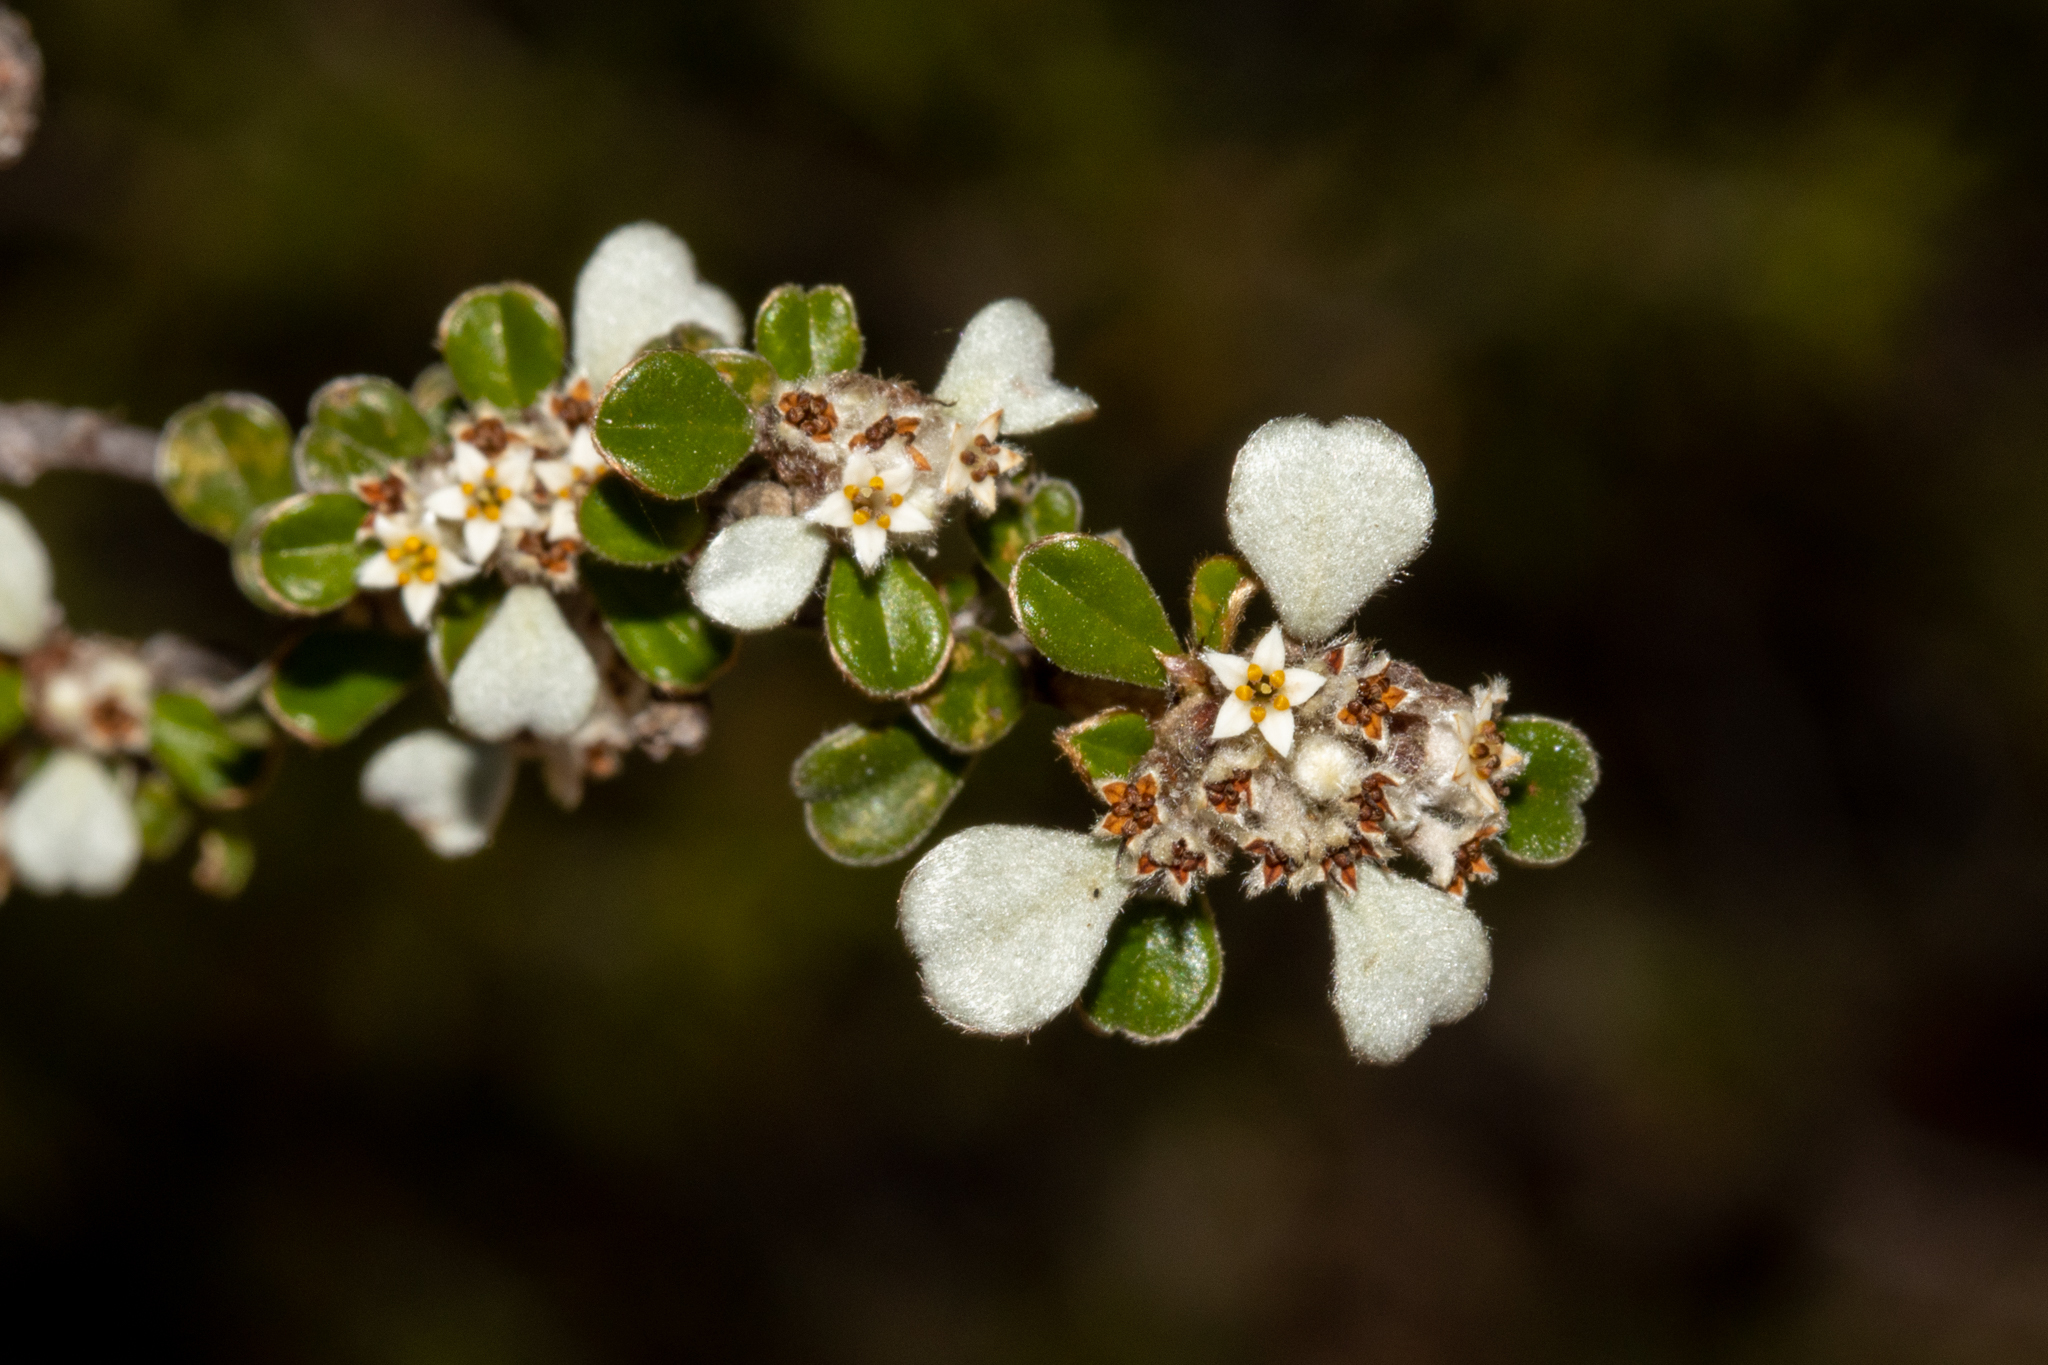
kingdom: Plantae
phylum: Tracheophyta
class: Magnoliopsida
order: Rosales
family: Rhamnaceae
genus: Cryptandra
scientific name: Cryptandra leucophracta
